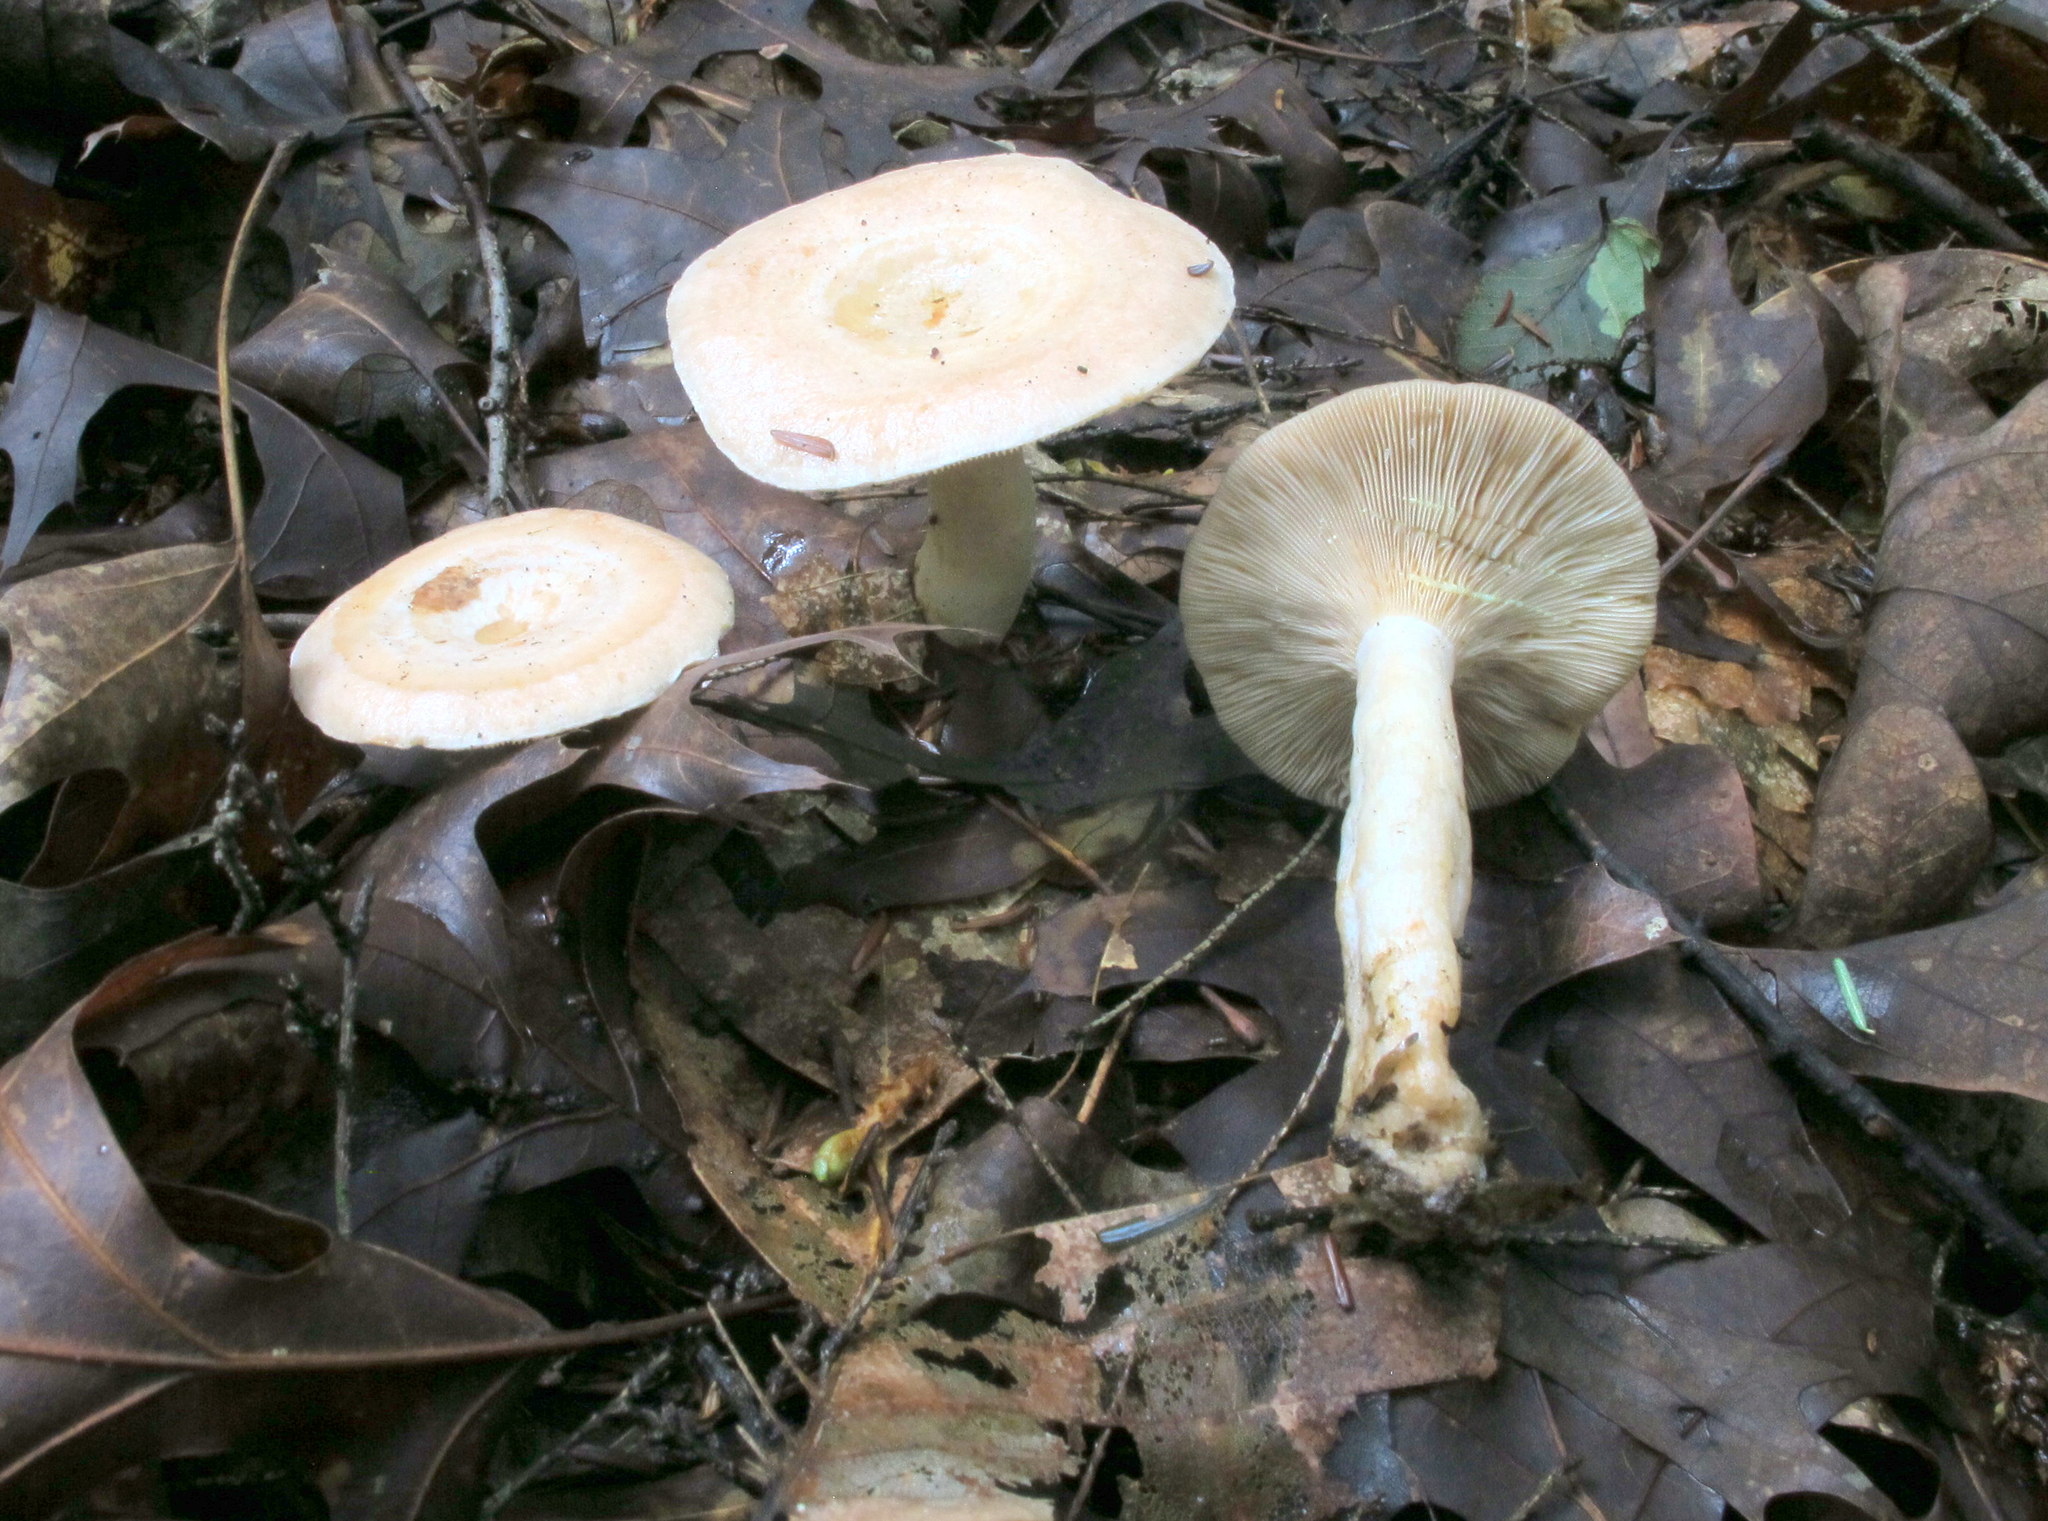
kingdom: Fungi
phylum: Basidiomycota
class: Agaricomycetes
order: Russulales
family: Russulaceae
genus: Lactarius
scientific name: Lactarius chrysorrheus
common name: Yellowdrop milkcap
